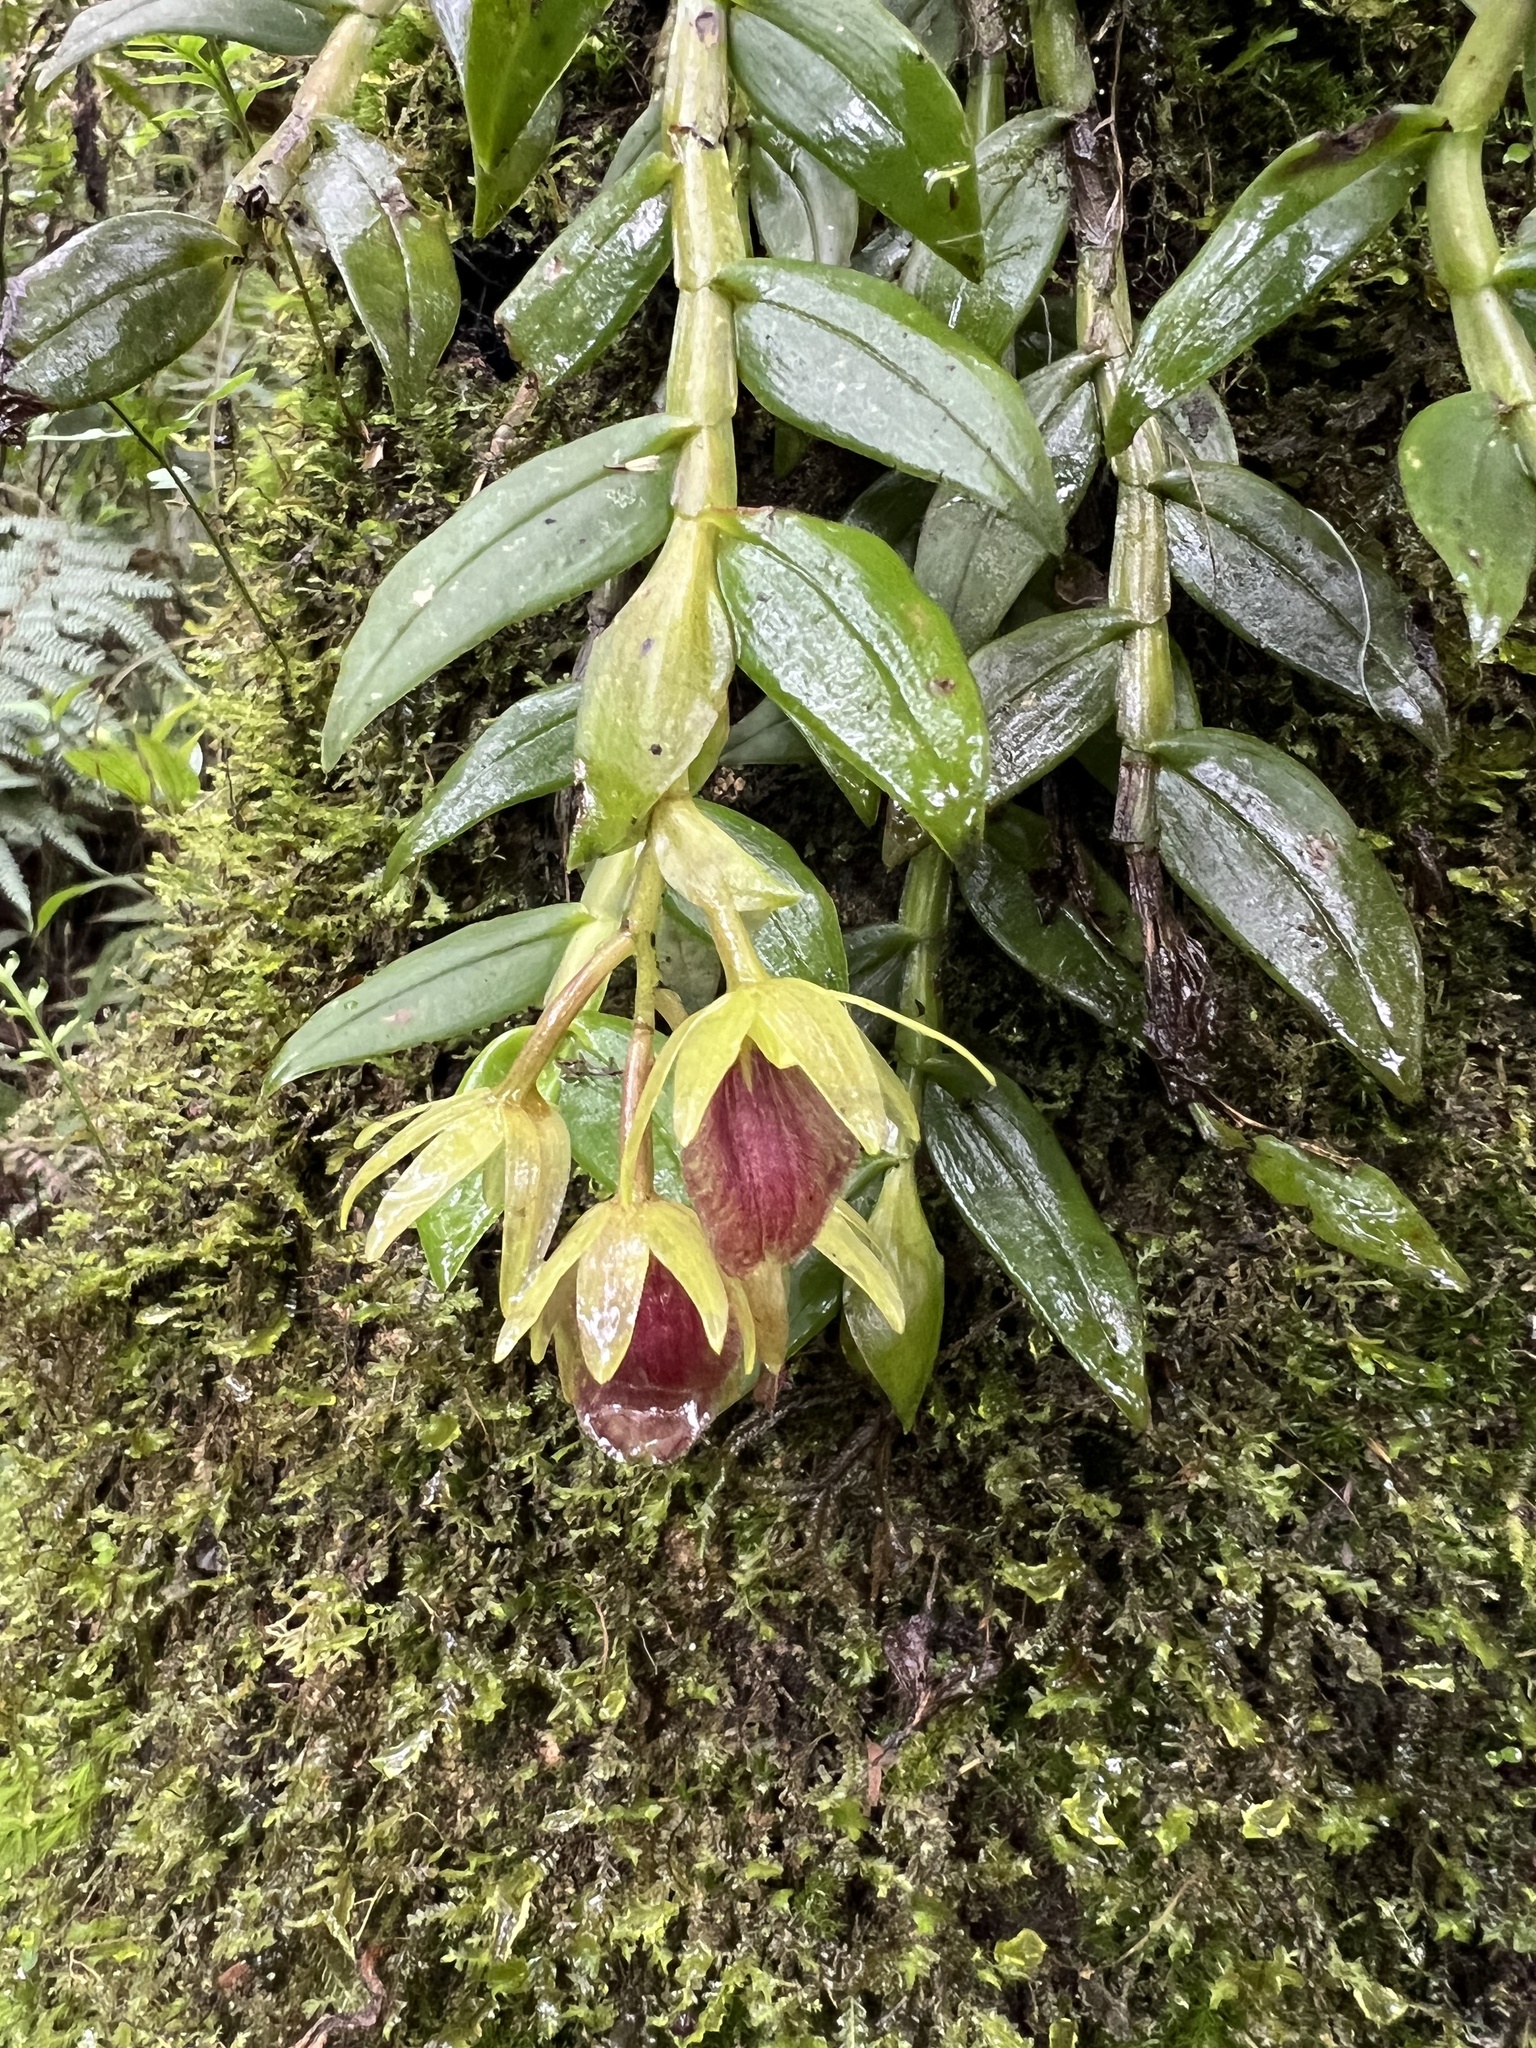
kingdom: Plantae
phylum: Tracheophyta
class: Liliopsida
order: Asparagales
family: Orchidaceae
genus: Epidendrum
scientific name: Epidendrum megalospathum
